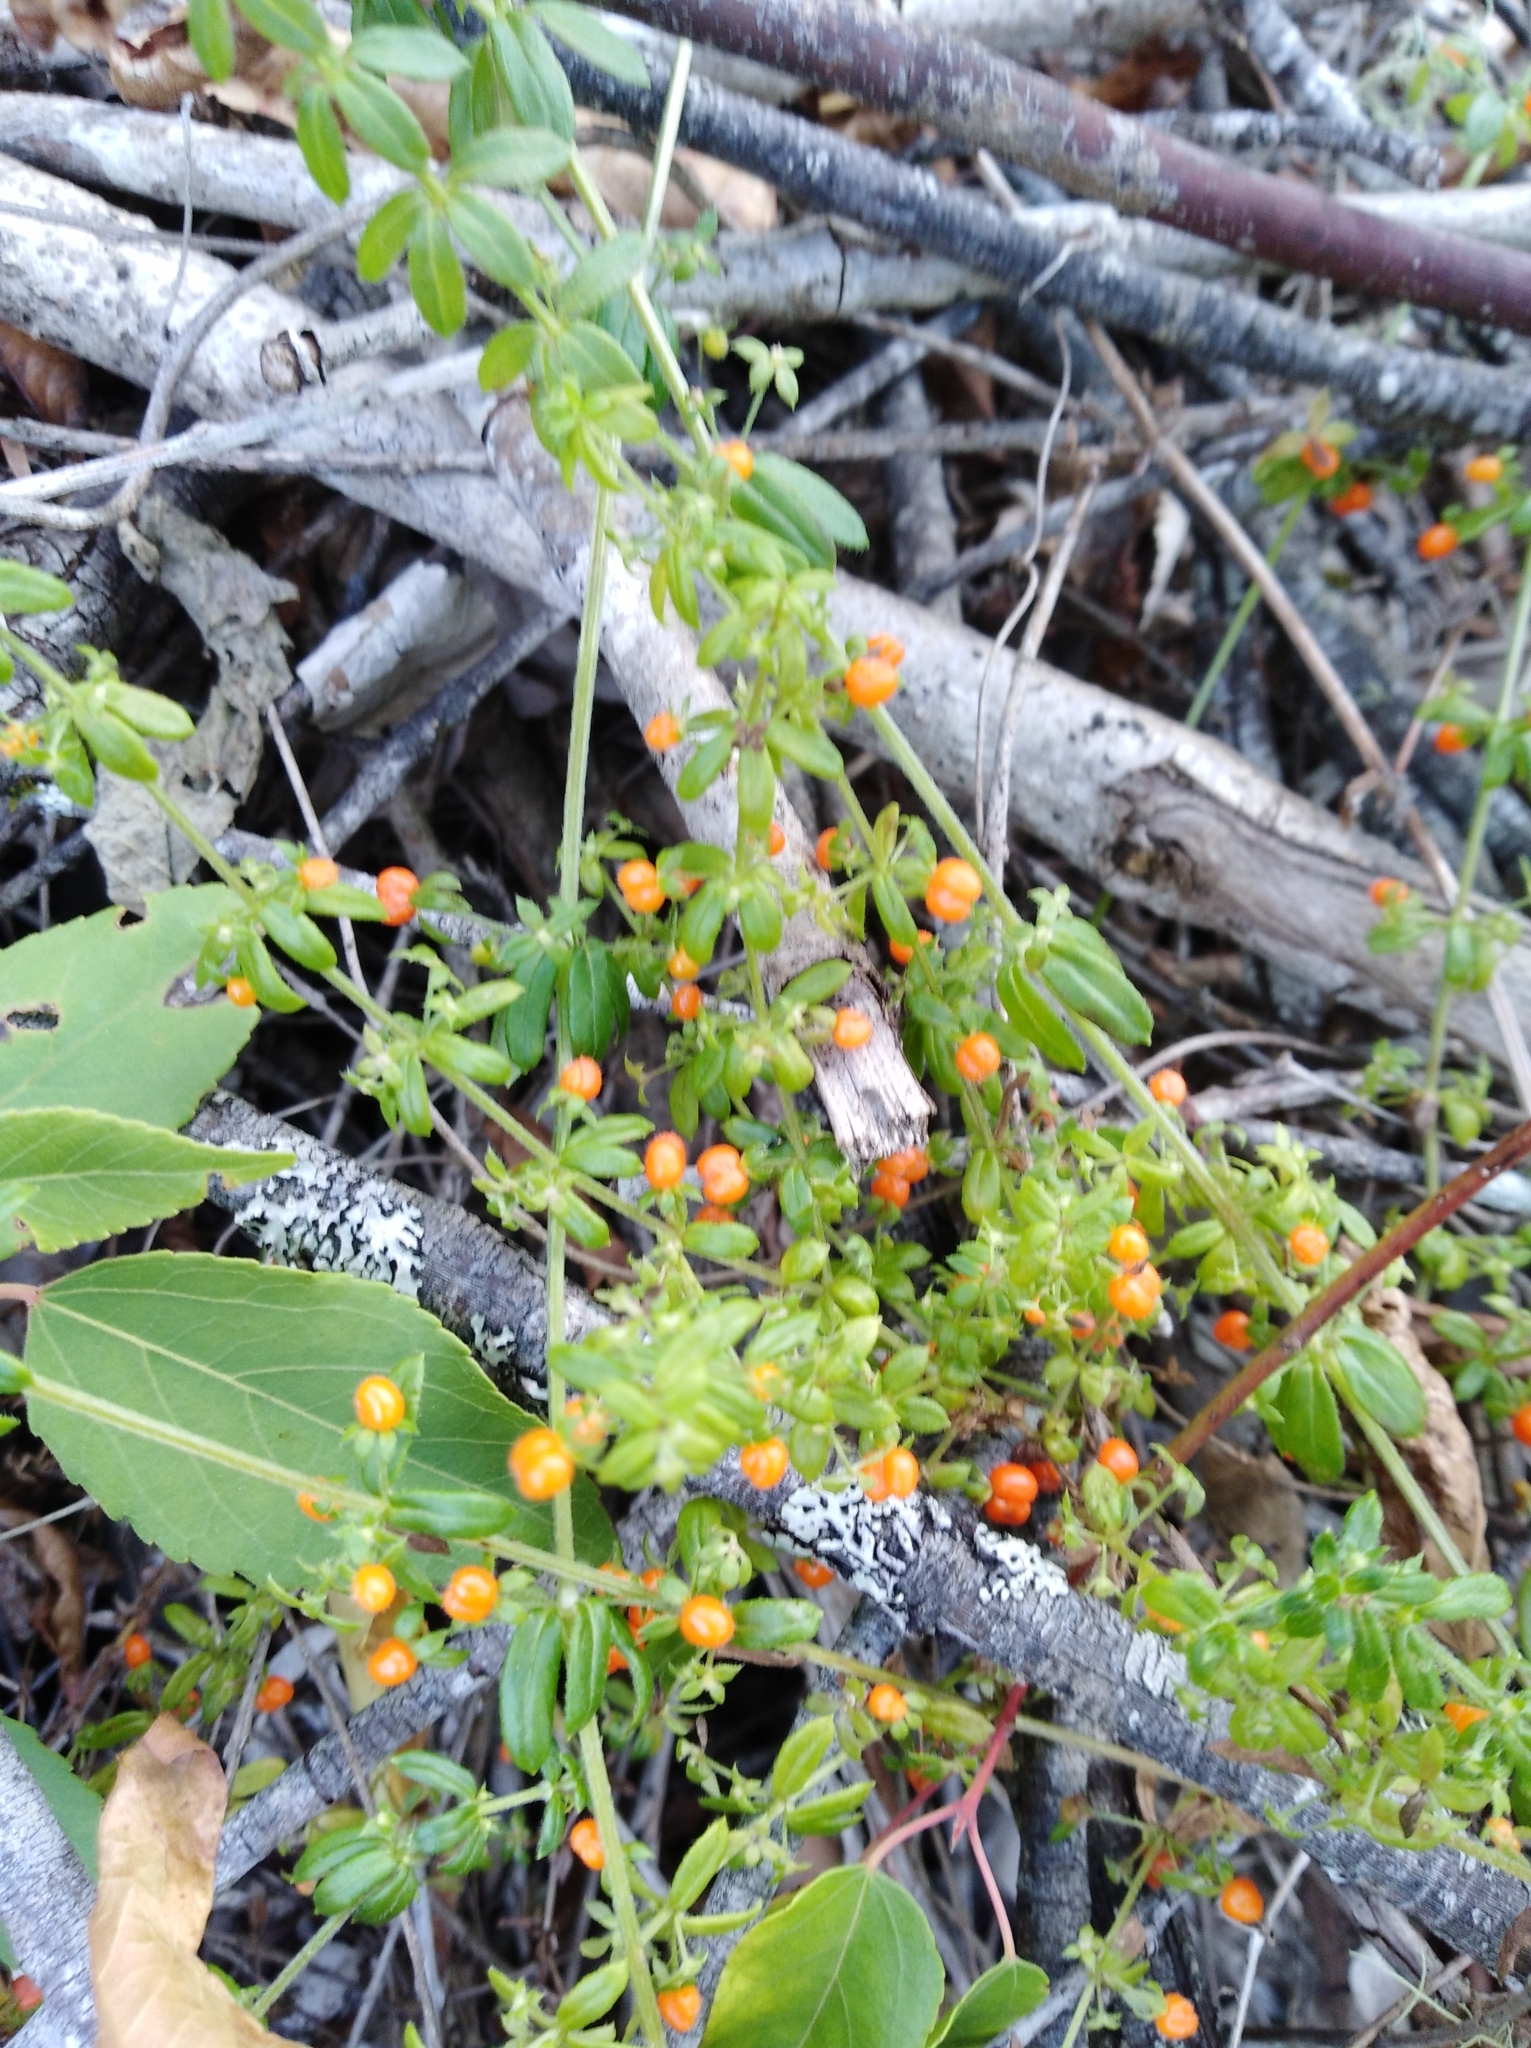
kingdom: Plantae
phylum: Tracheophyta
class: Magnoliopsida
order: Gentianales
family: Rubiaceae
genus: Galium
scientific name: Galium hypocarpium
